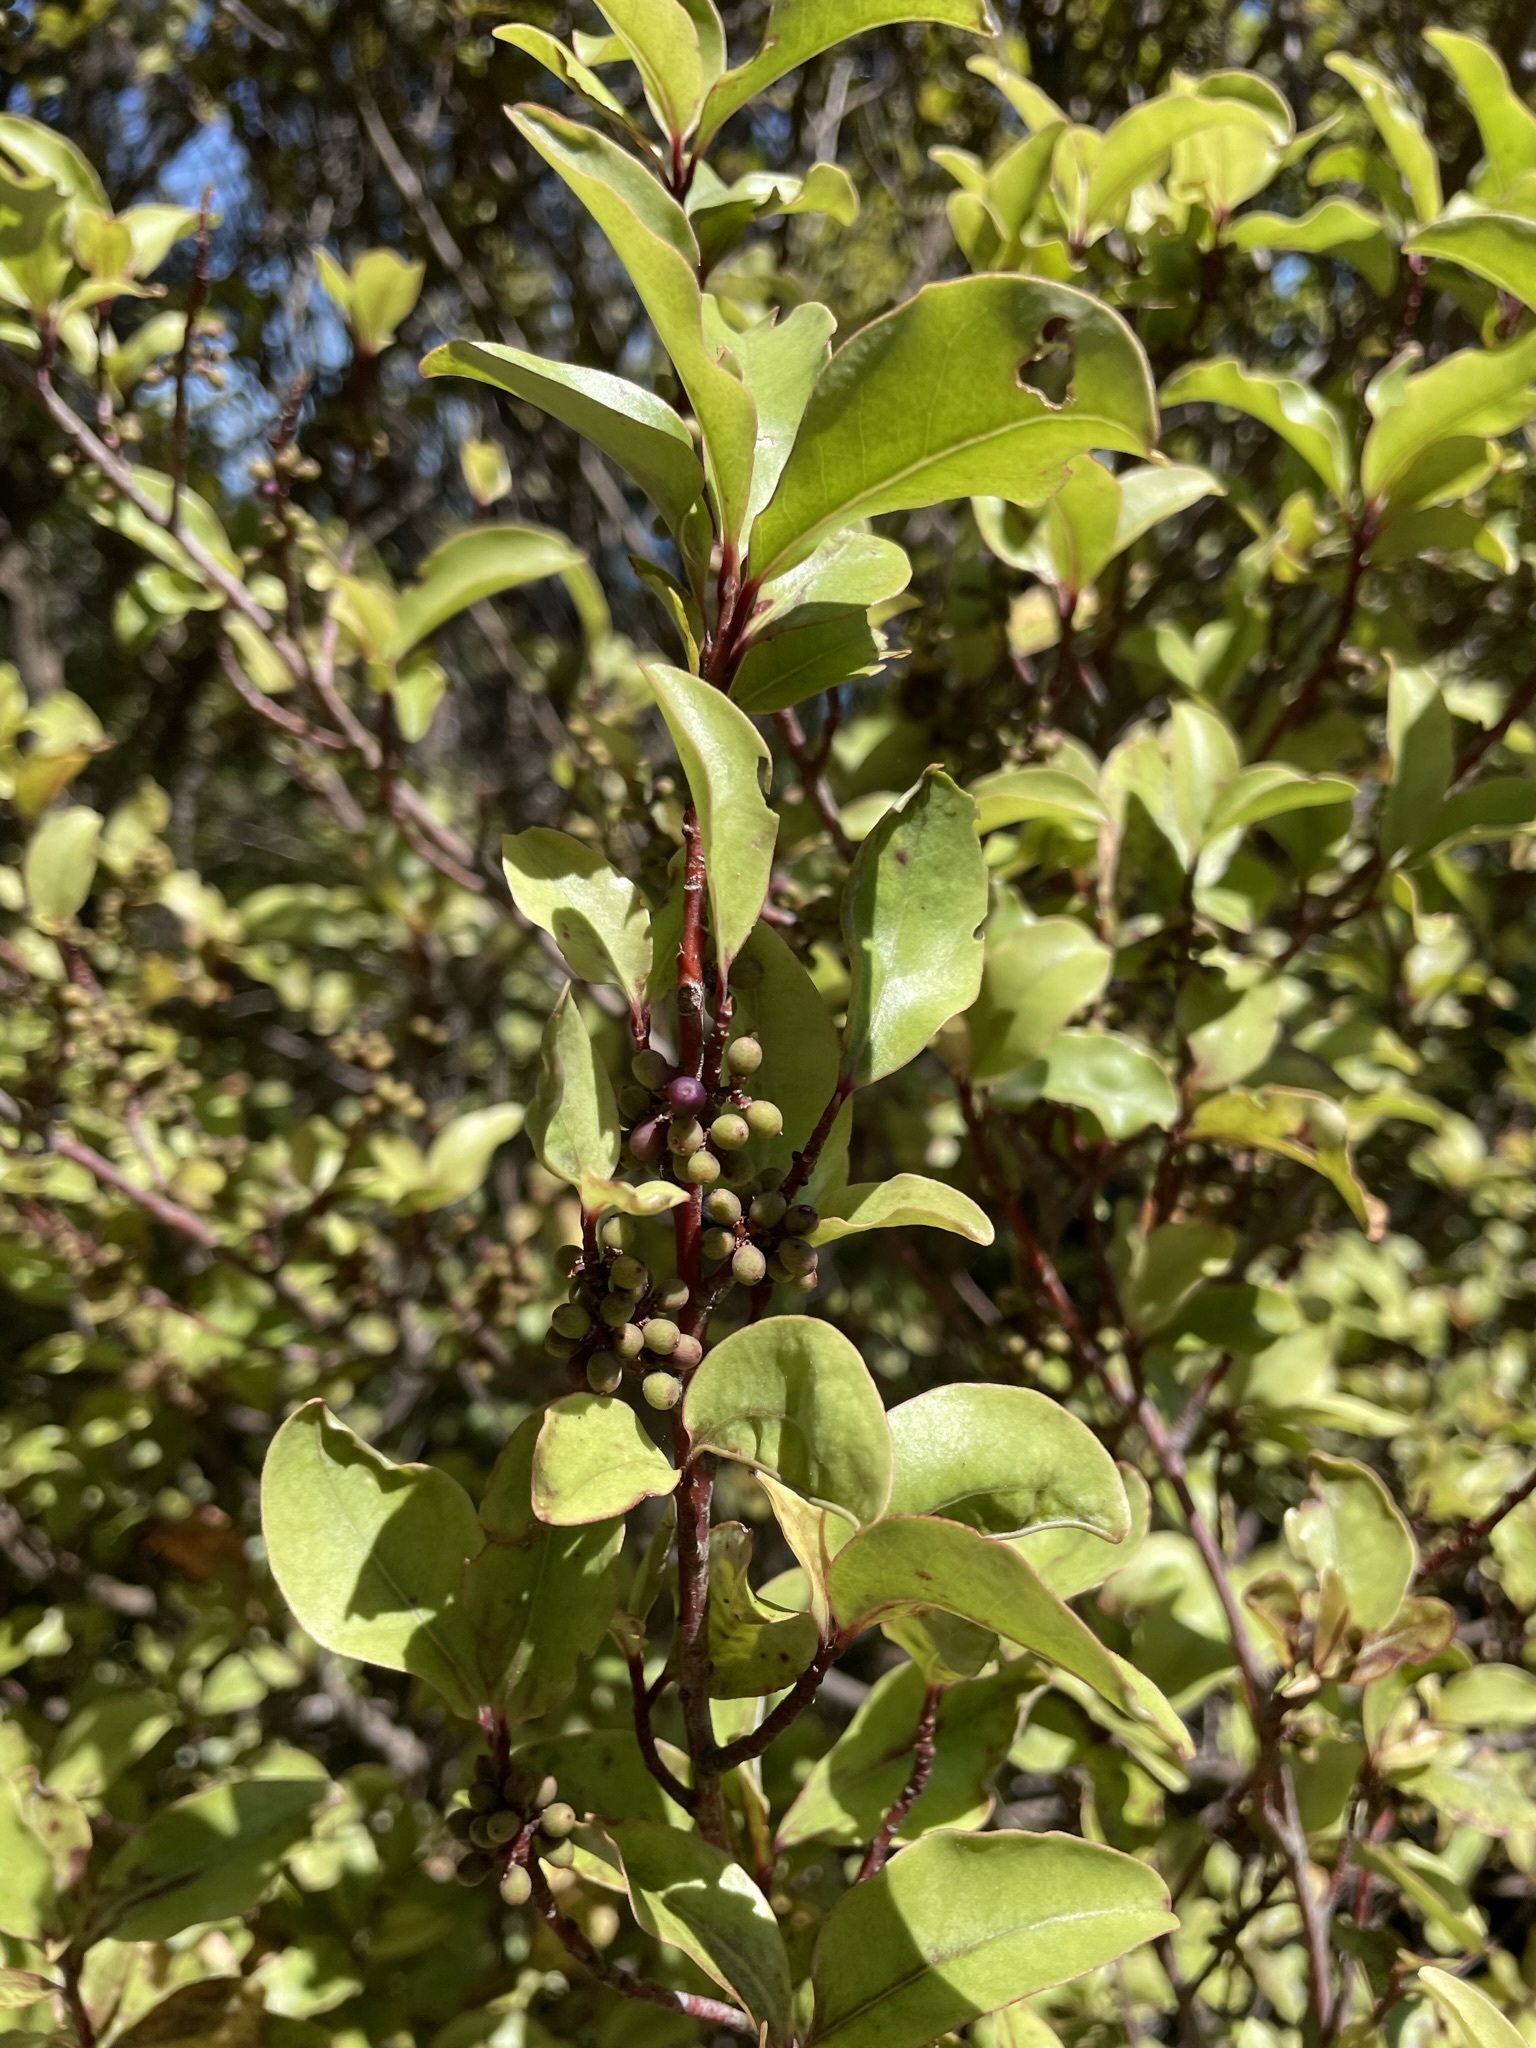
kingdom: Plantae
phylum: Tracheophyta
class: Magnoliopsida
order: Ericales
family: Primulaceae
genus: Myrsine
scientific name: Myrsine australis
